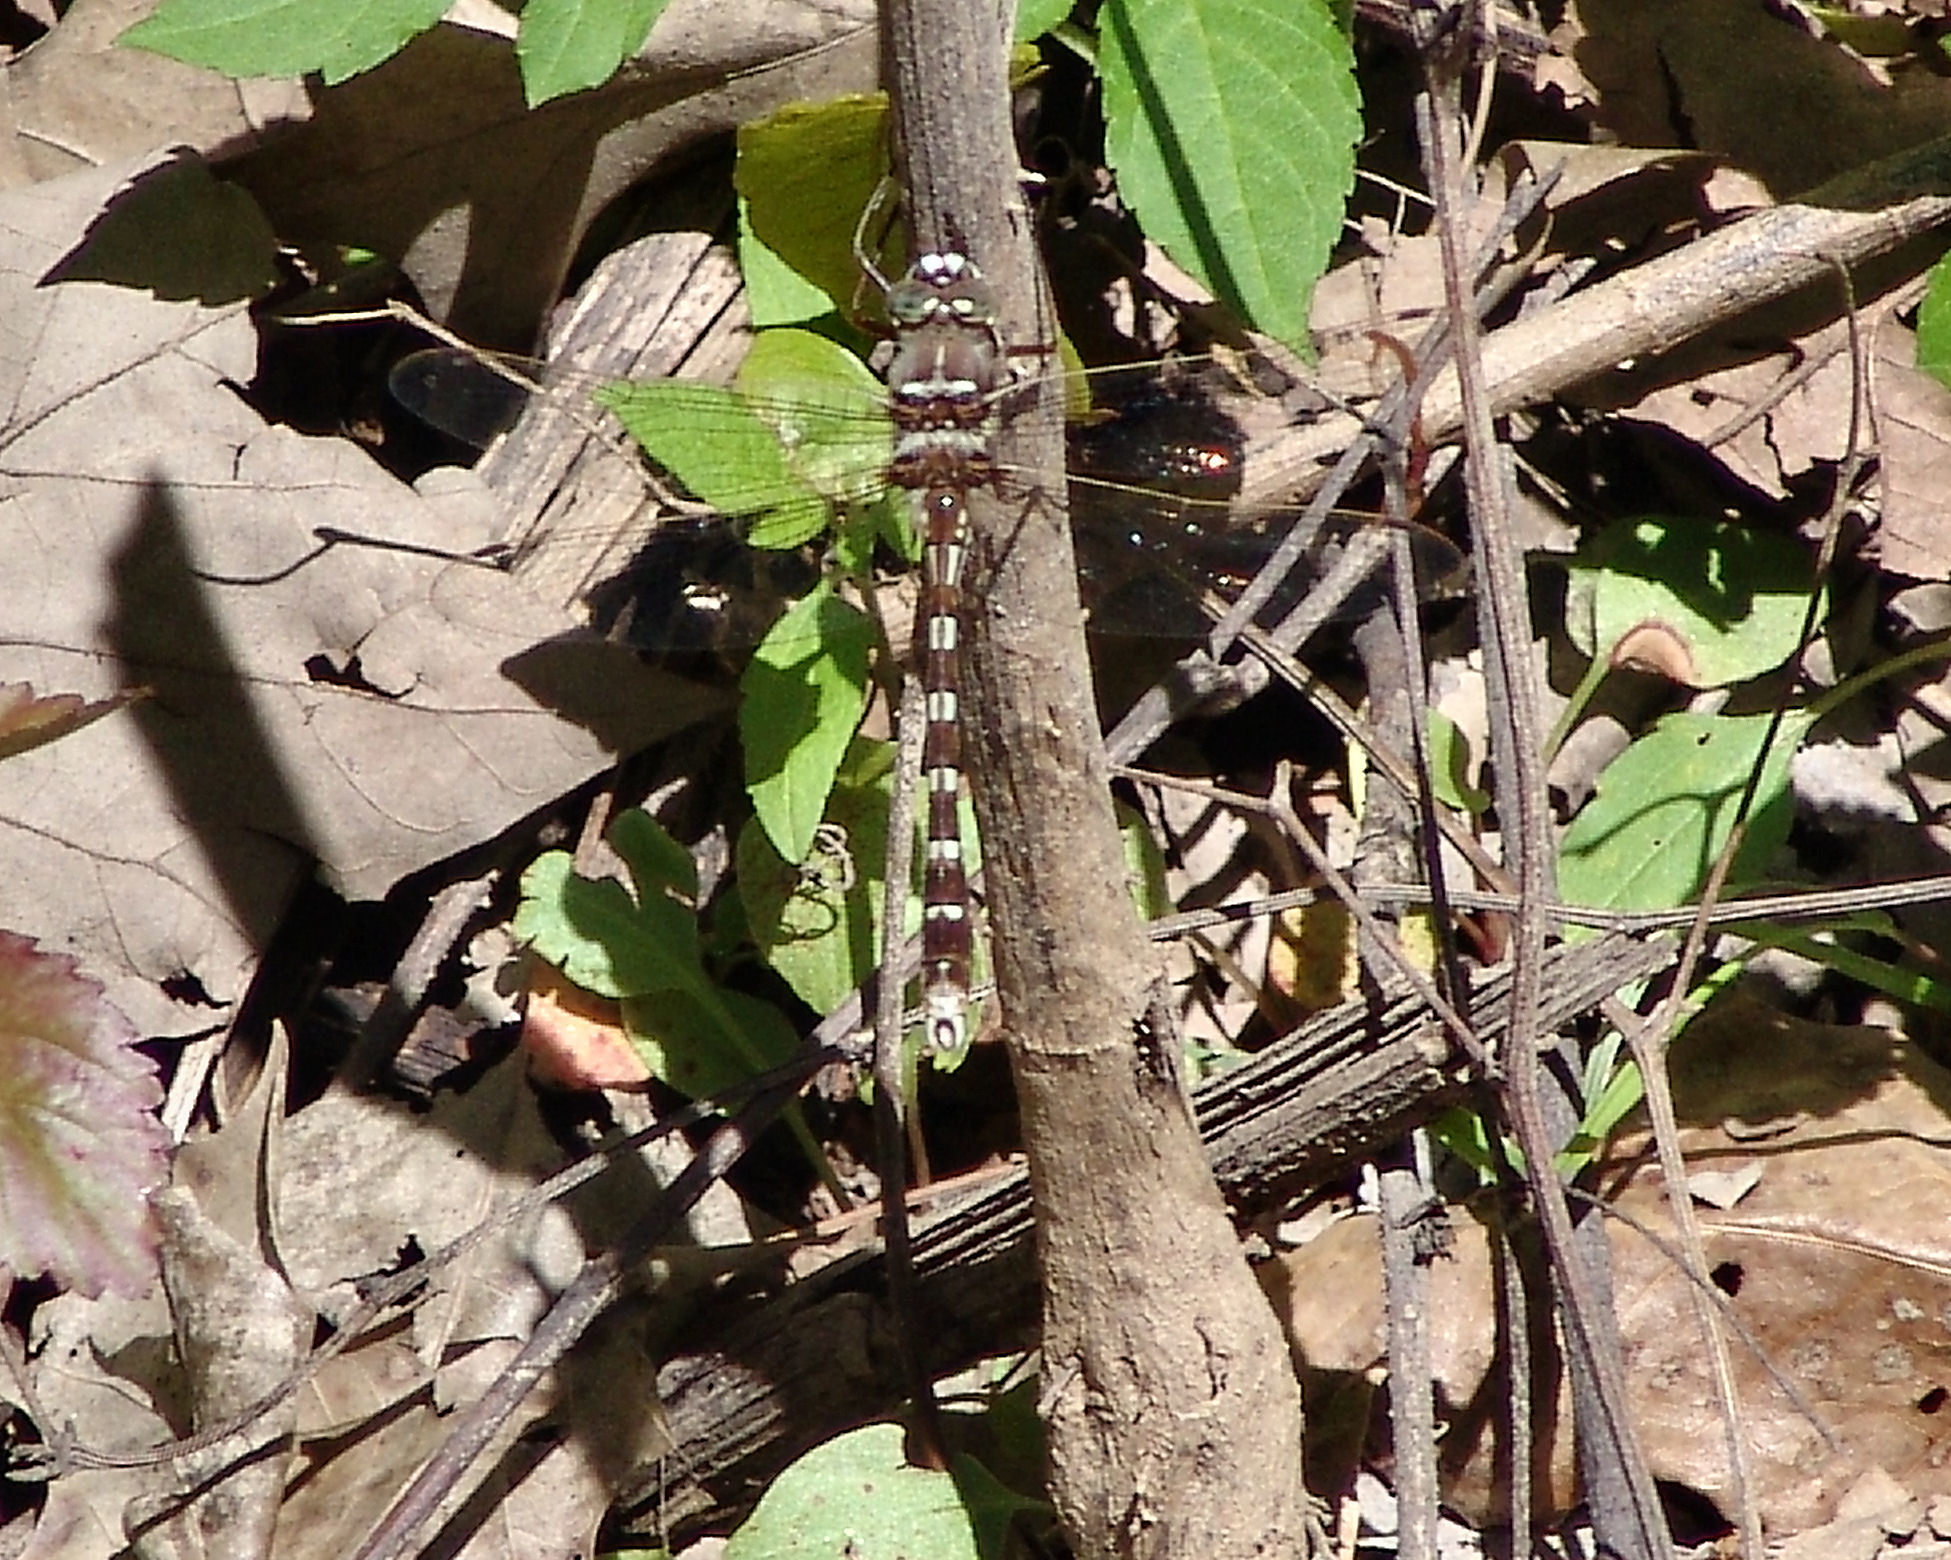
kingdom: Animalia
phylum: Arthropoda
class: Insecta
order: Odonata
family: Macromiidae
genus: Didymops
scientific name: Didymops transversa
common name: Stream cruiser
